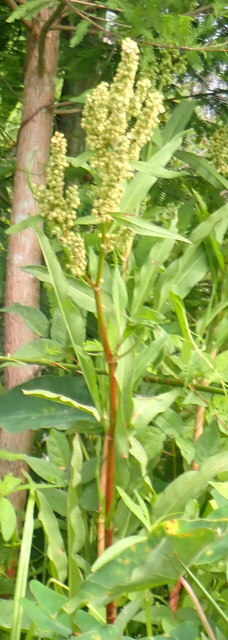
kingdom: Plantae
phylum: Tracheophyta
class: Magnoliopsida
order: Caryophyllales
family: Polygonaceae
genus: Rumex
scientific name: Rumex verticillatus
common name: Swamp dock
